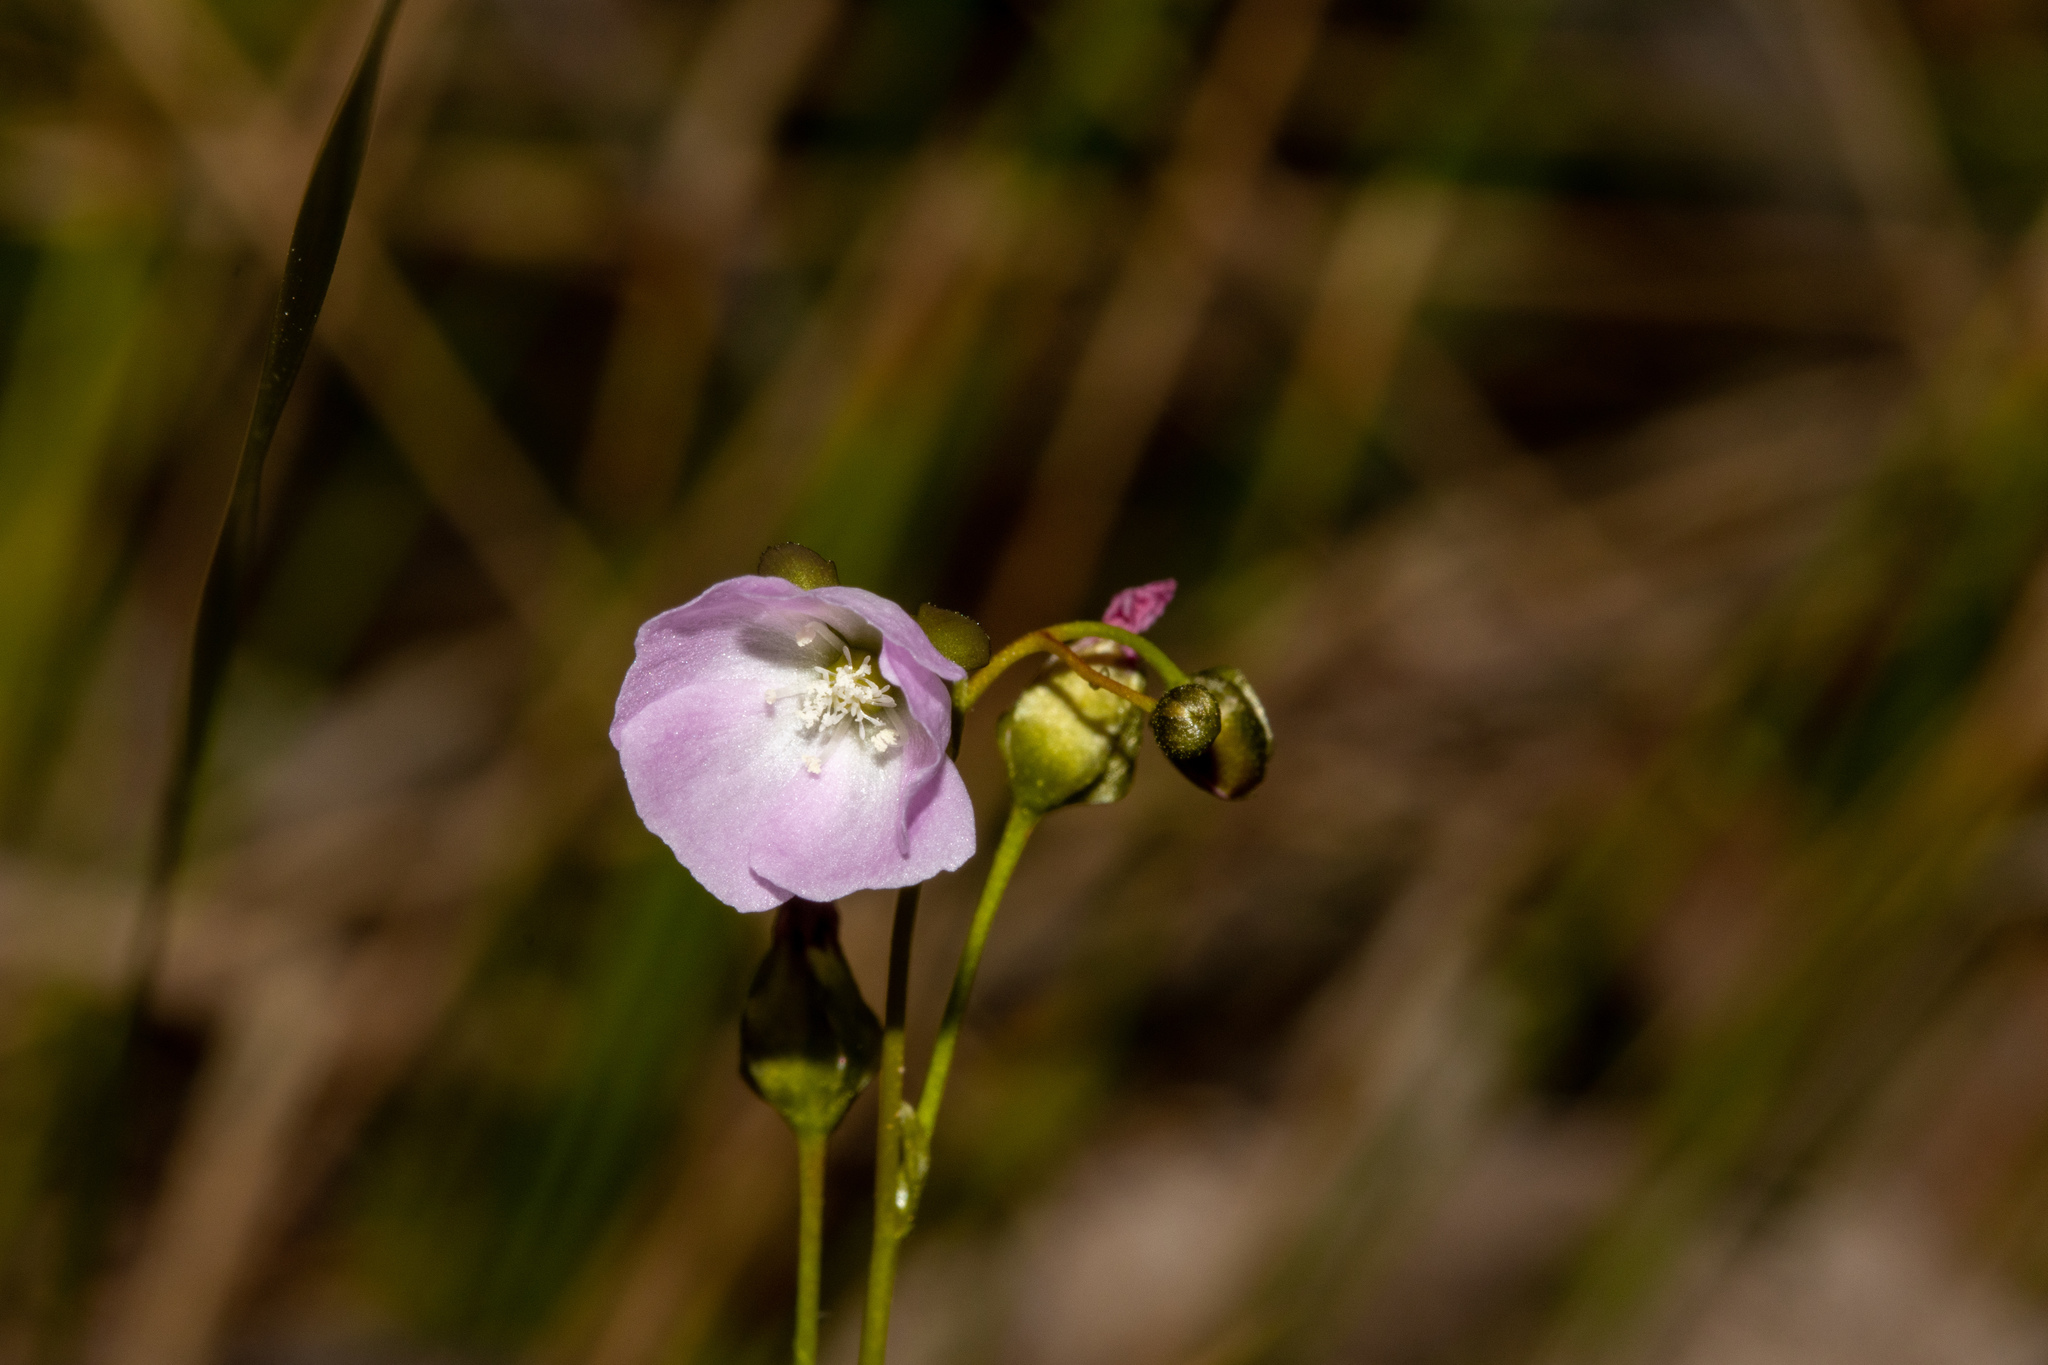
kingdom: Plantae
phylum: Tracheophyta
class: Magnoliopsida
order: Caryophyllales
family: Droseraceae
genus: Drosera
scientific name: Drosera peltata
